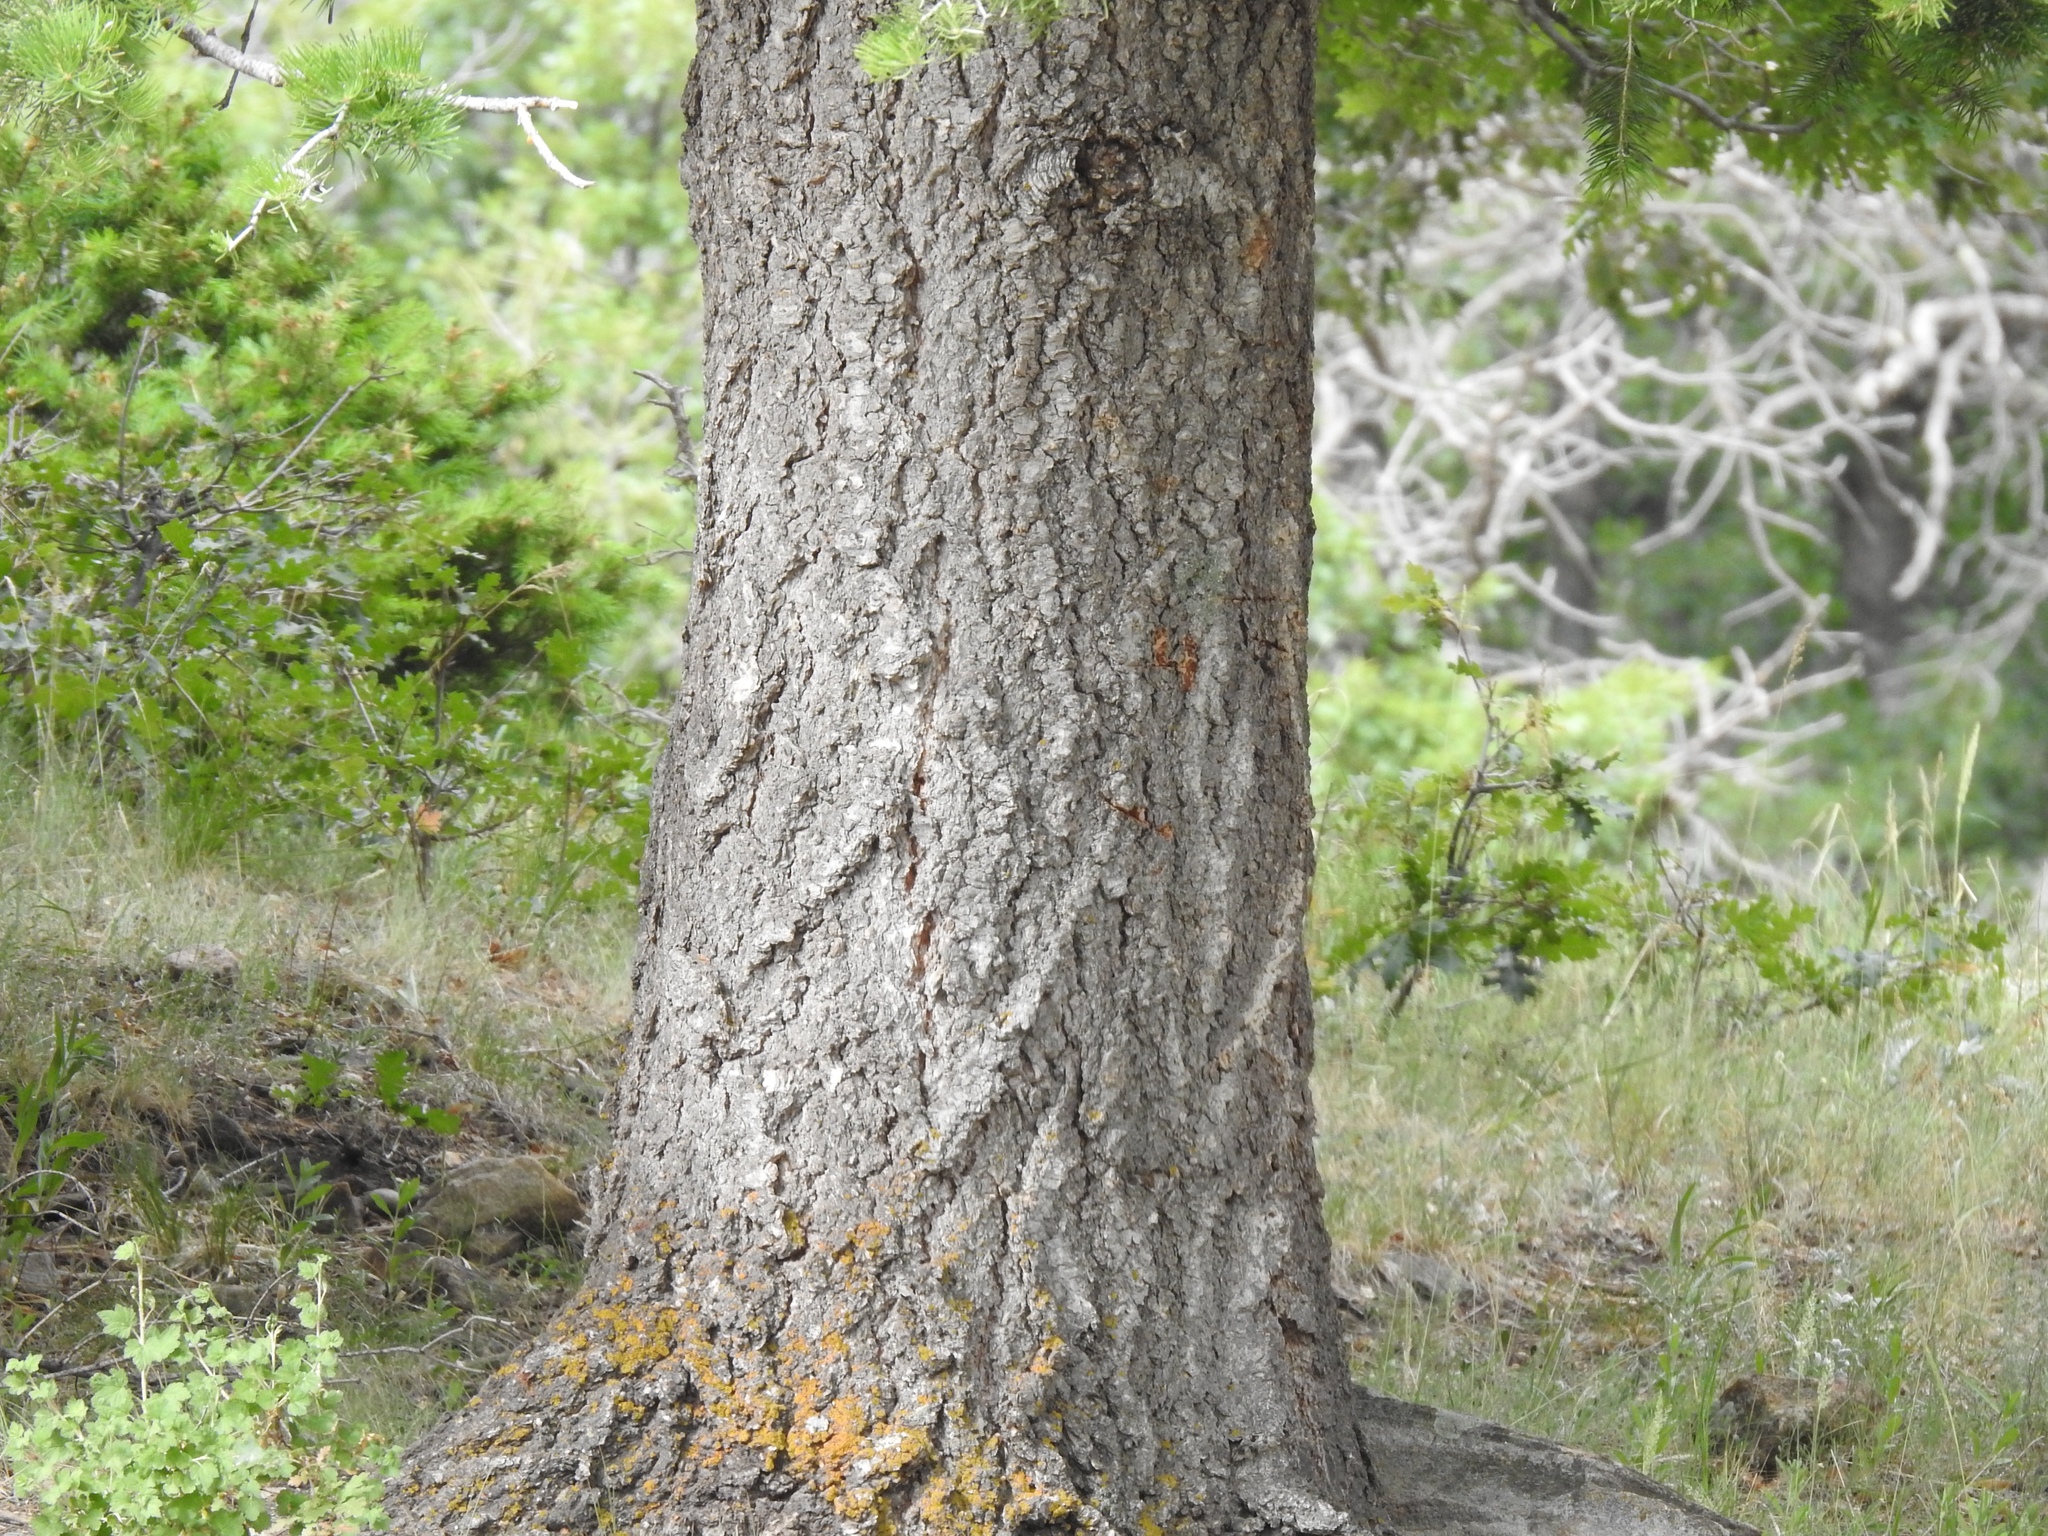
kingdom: Plantae
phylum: Tracheophyta
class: Pinopsida
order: Pinales
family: Pinaceae
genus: Abies
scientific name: Abies concolor
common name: Colorado fir
